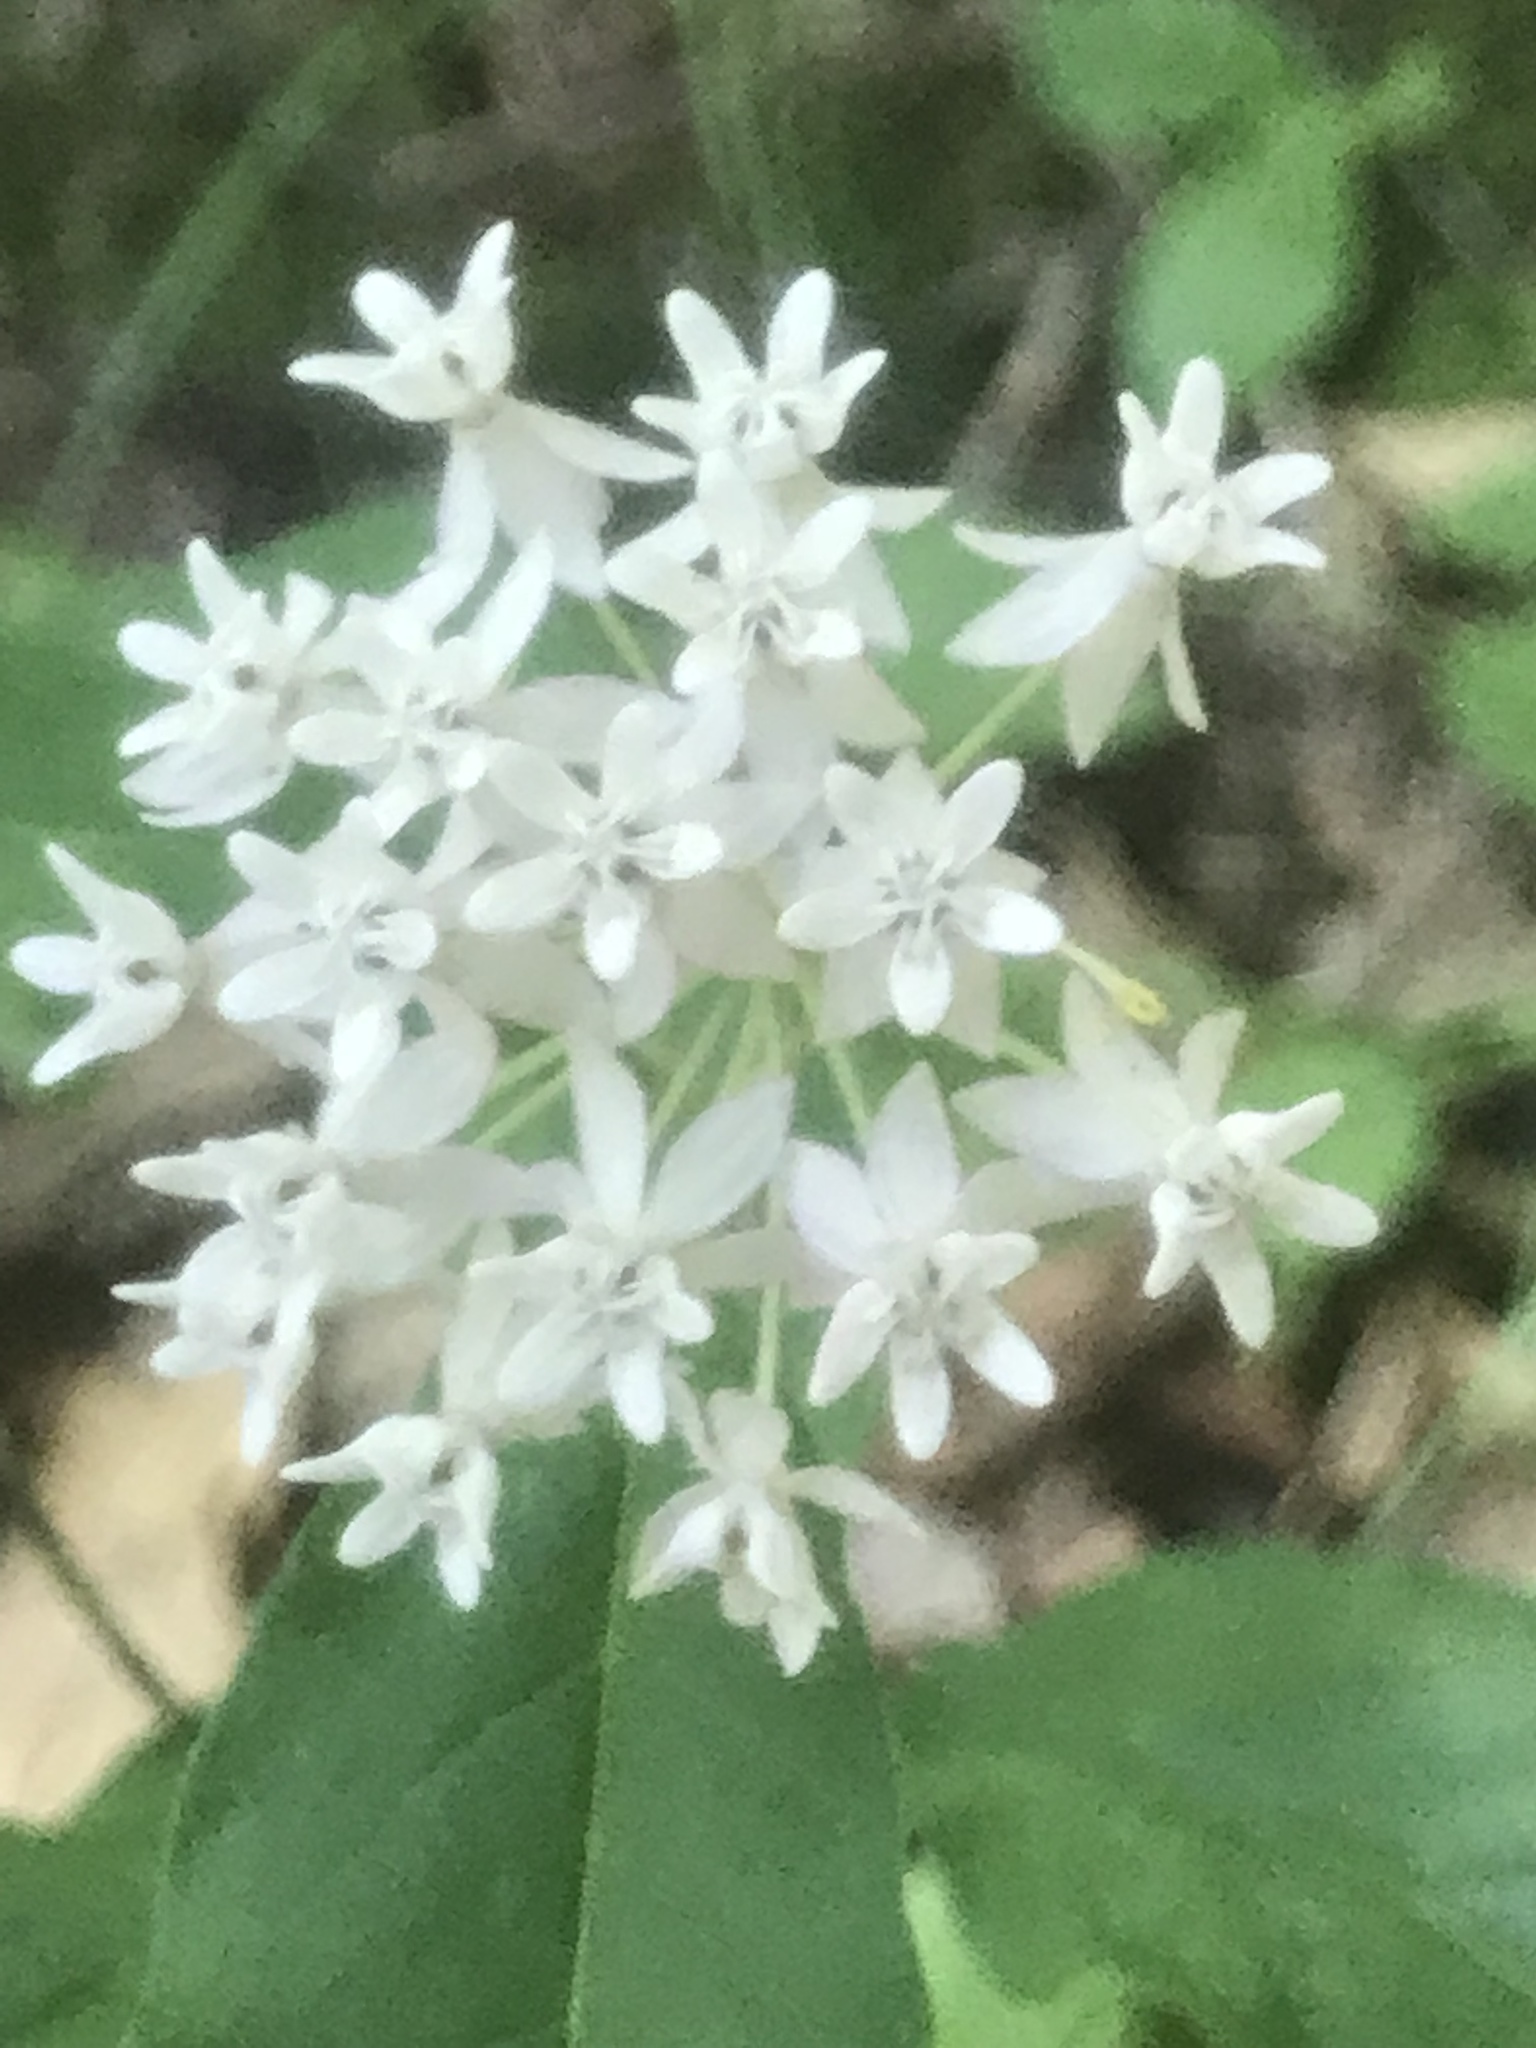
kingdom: Plantae
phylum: Tracheophyta
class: Magnoliopsida
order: Gentianales
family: Apocynaceae
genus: Asclepias
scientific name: Asclepias quadrifolia
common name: Whorled milkweed
